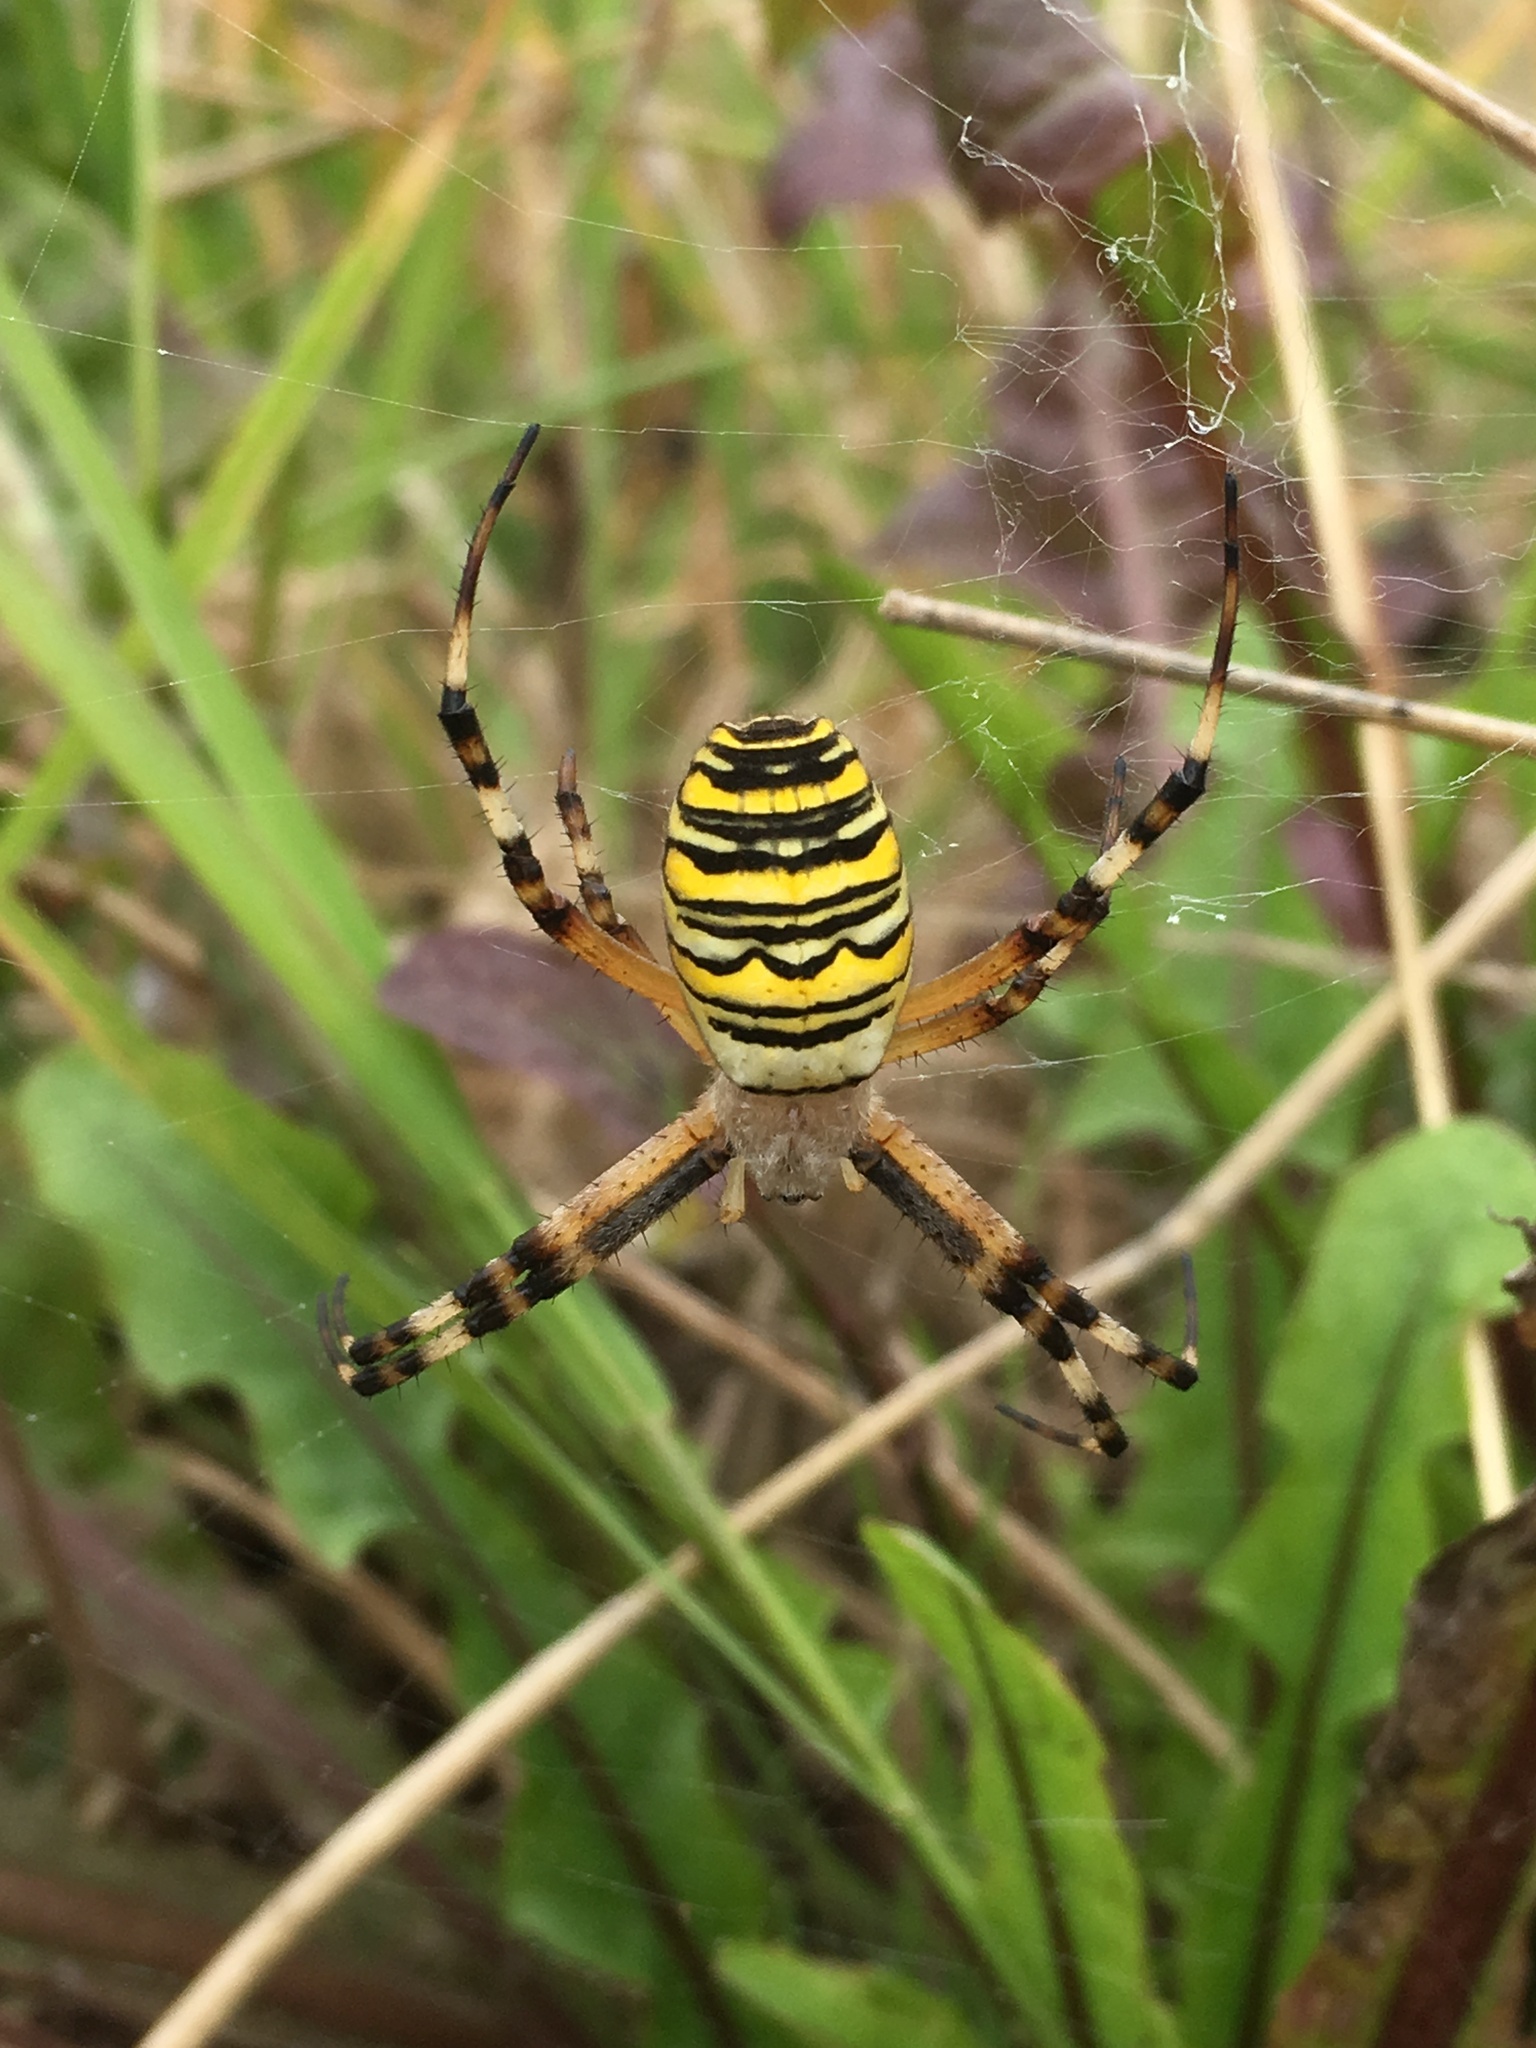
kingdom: Animalia
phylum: Arthropoda
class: Arachnida
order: Araneae
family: Araneidae
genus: Argiope
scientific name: Argiope bruennichi
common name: Wasp spider
